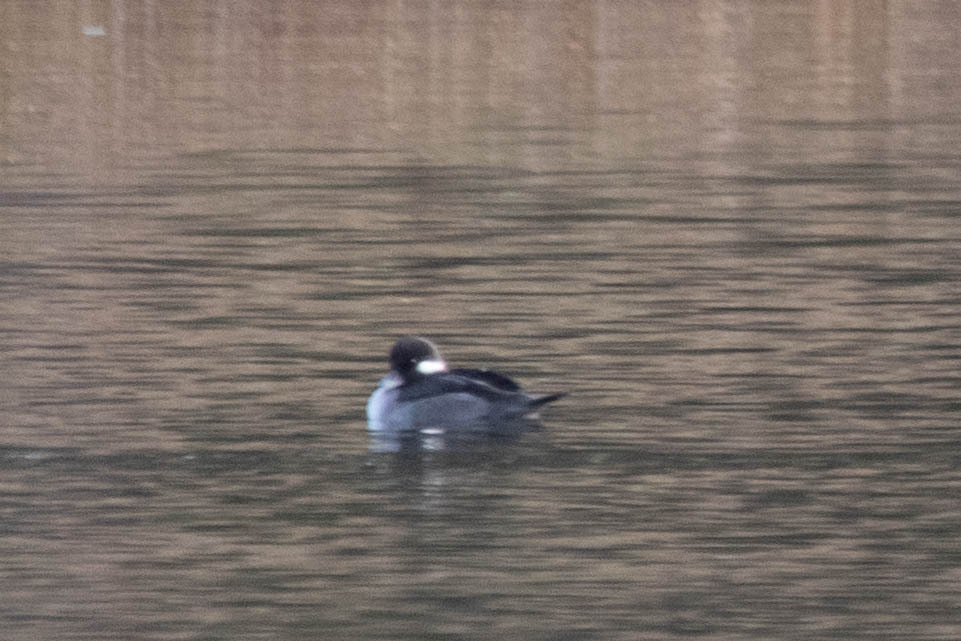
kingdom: Animalia
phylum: Chordata
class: Aves
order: Anseriformes
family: Anatidae
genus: Bucephala
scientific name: Bucephala albeola
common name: Bufflehead
